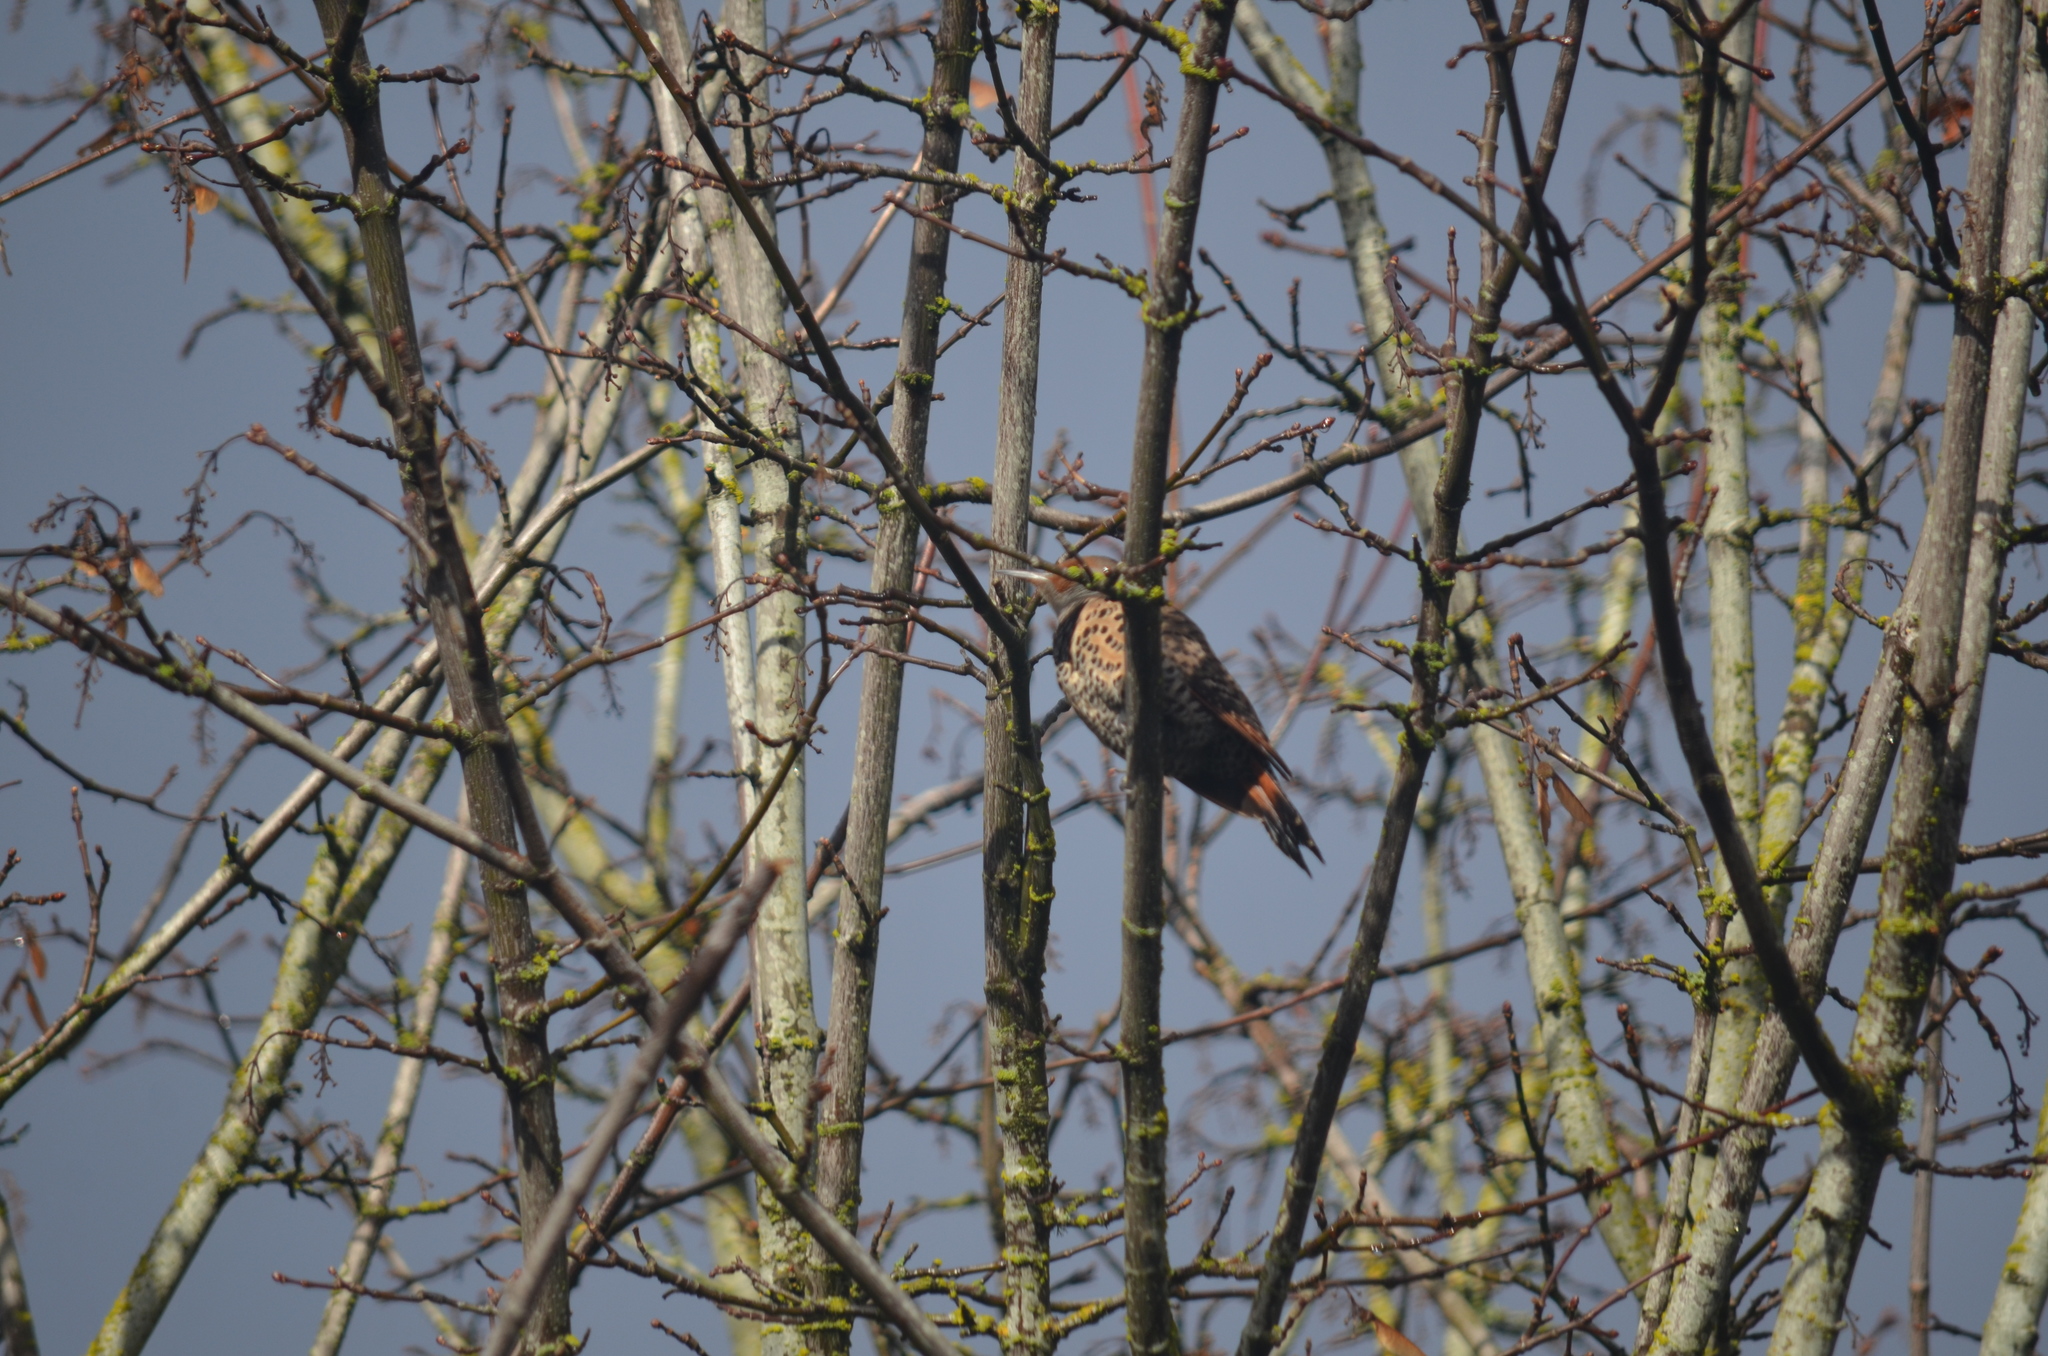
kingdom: Animalia
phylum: Chordata
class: Aves
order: Piciformes
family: Picidae
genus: Colaptes
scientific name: Colaptes auratus
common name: Northern flicker
